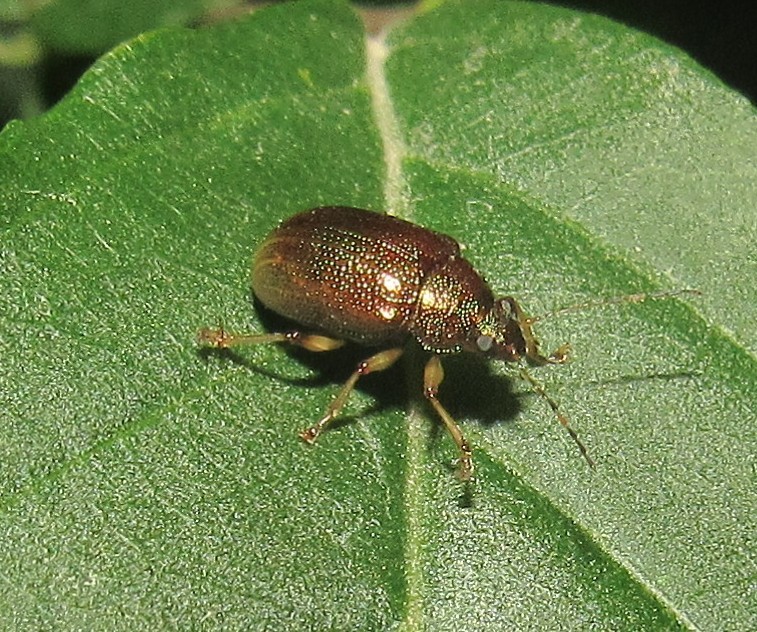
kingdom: Animalia
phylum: Arthropoda
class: Insecta
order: Coleoptera
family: Chrysomelidae
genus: Colaspis
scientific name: Colaspis aerea
